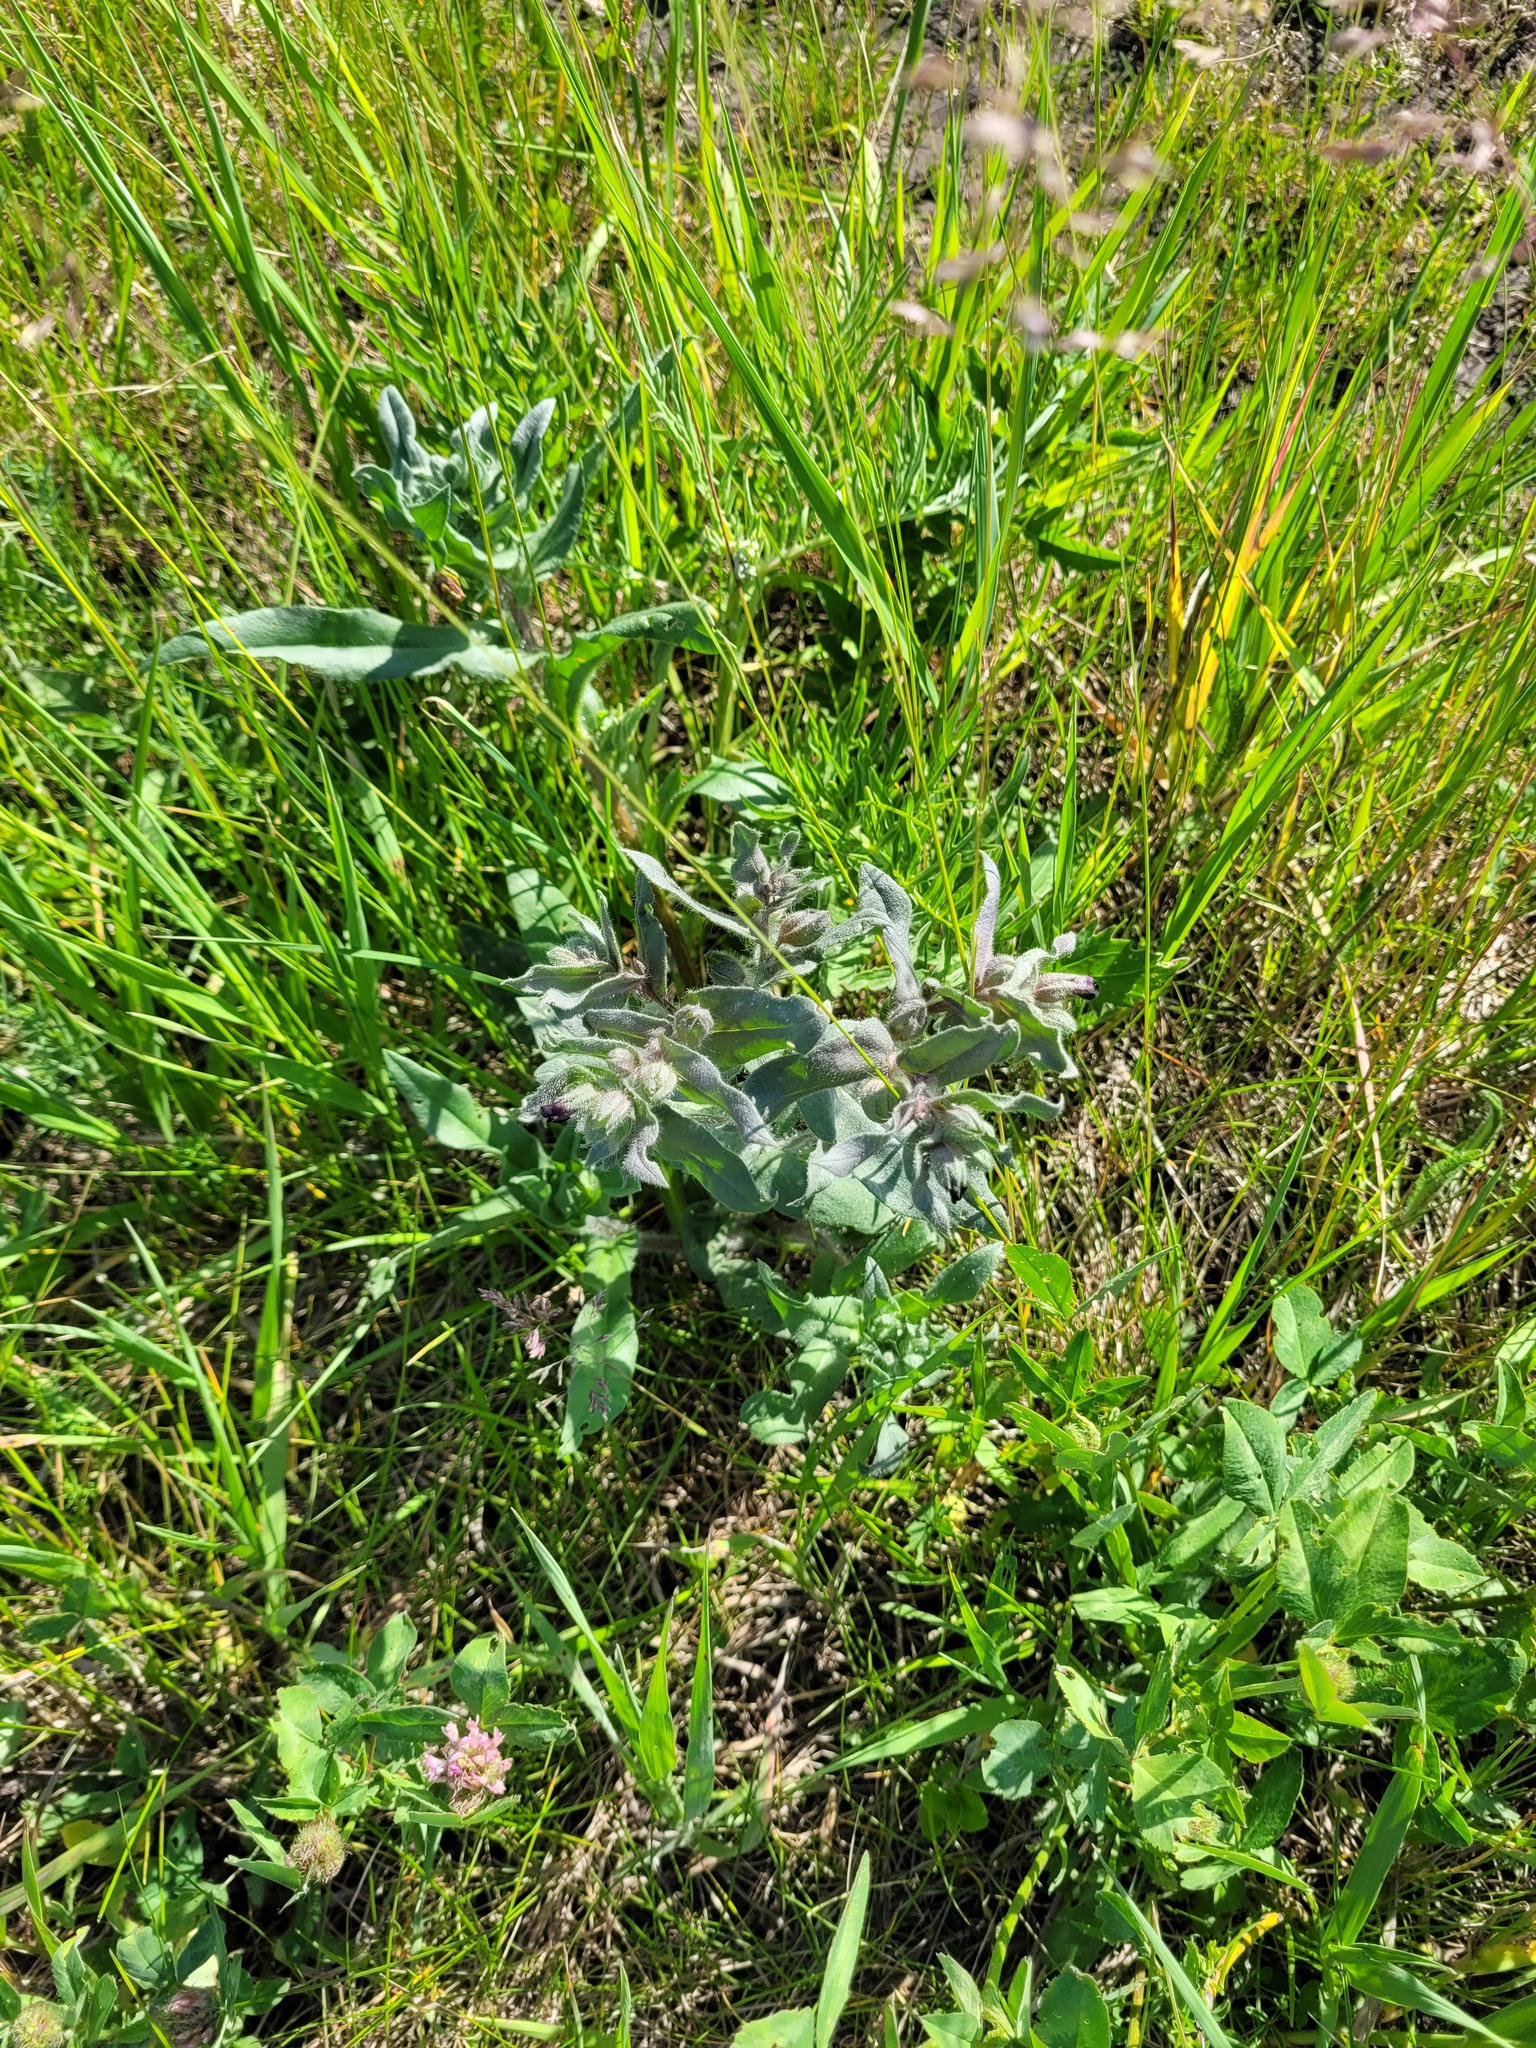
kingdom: Plantae
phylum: Tracheophyta
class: Magnoliopsida
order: Boraginales
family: Boraginaceae
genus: Nonea
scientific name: Nonea pulla
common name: Brown nonea
